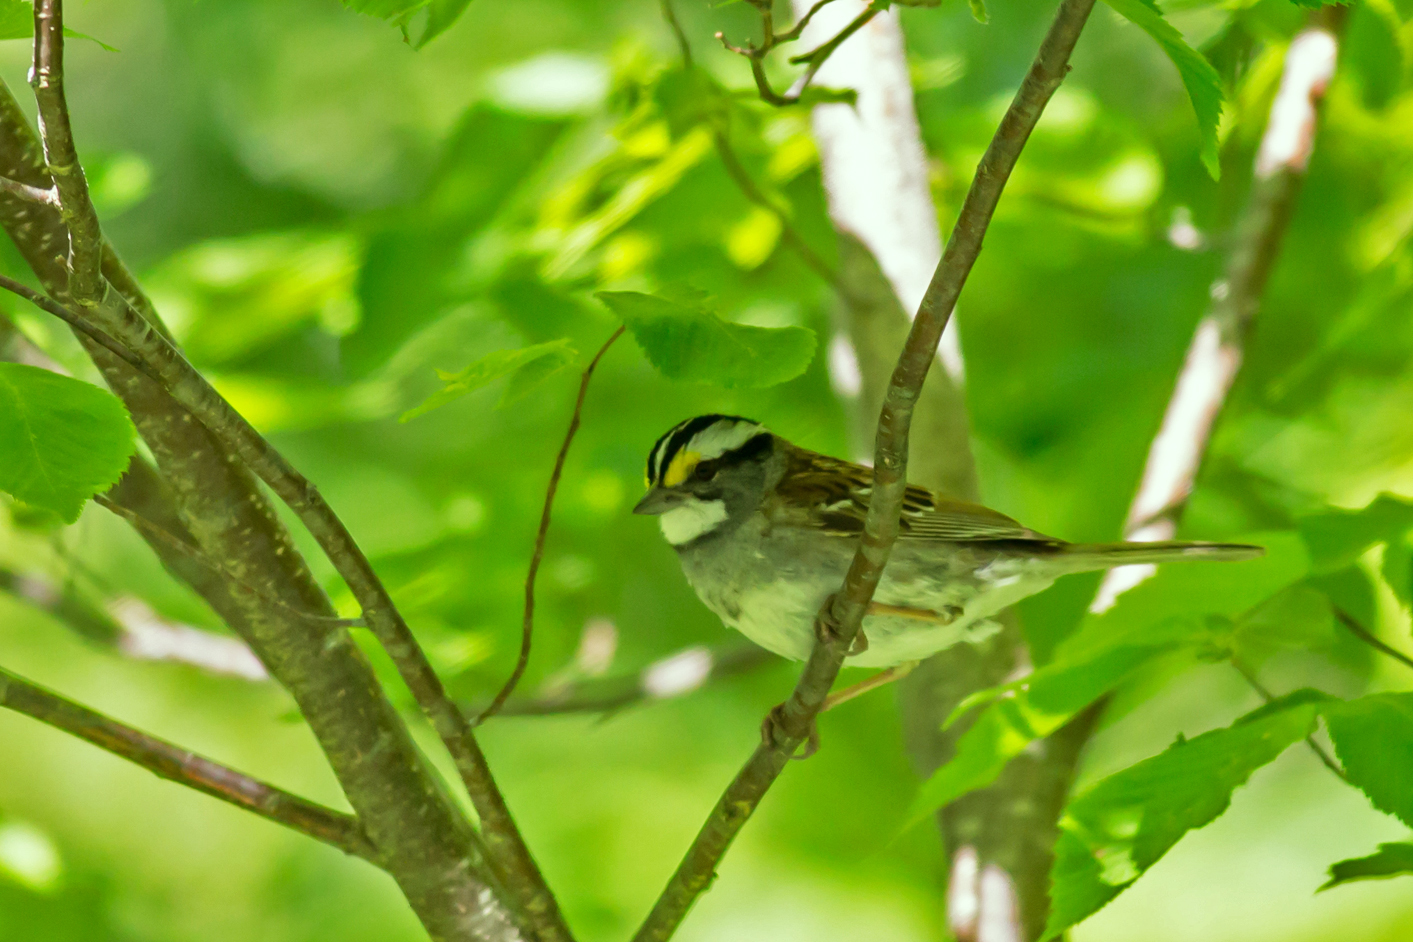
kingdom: Animalia
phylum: Chordata
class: Aves
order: Passeriformes
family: Passerellidae
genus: Zonotrichia
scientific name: Zonotrichia albicollis
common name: White-throated sparrow
